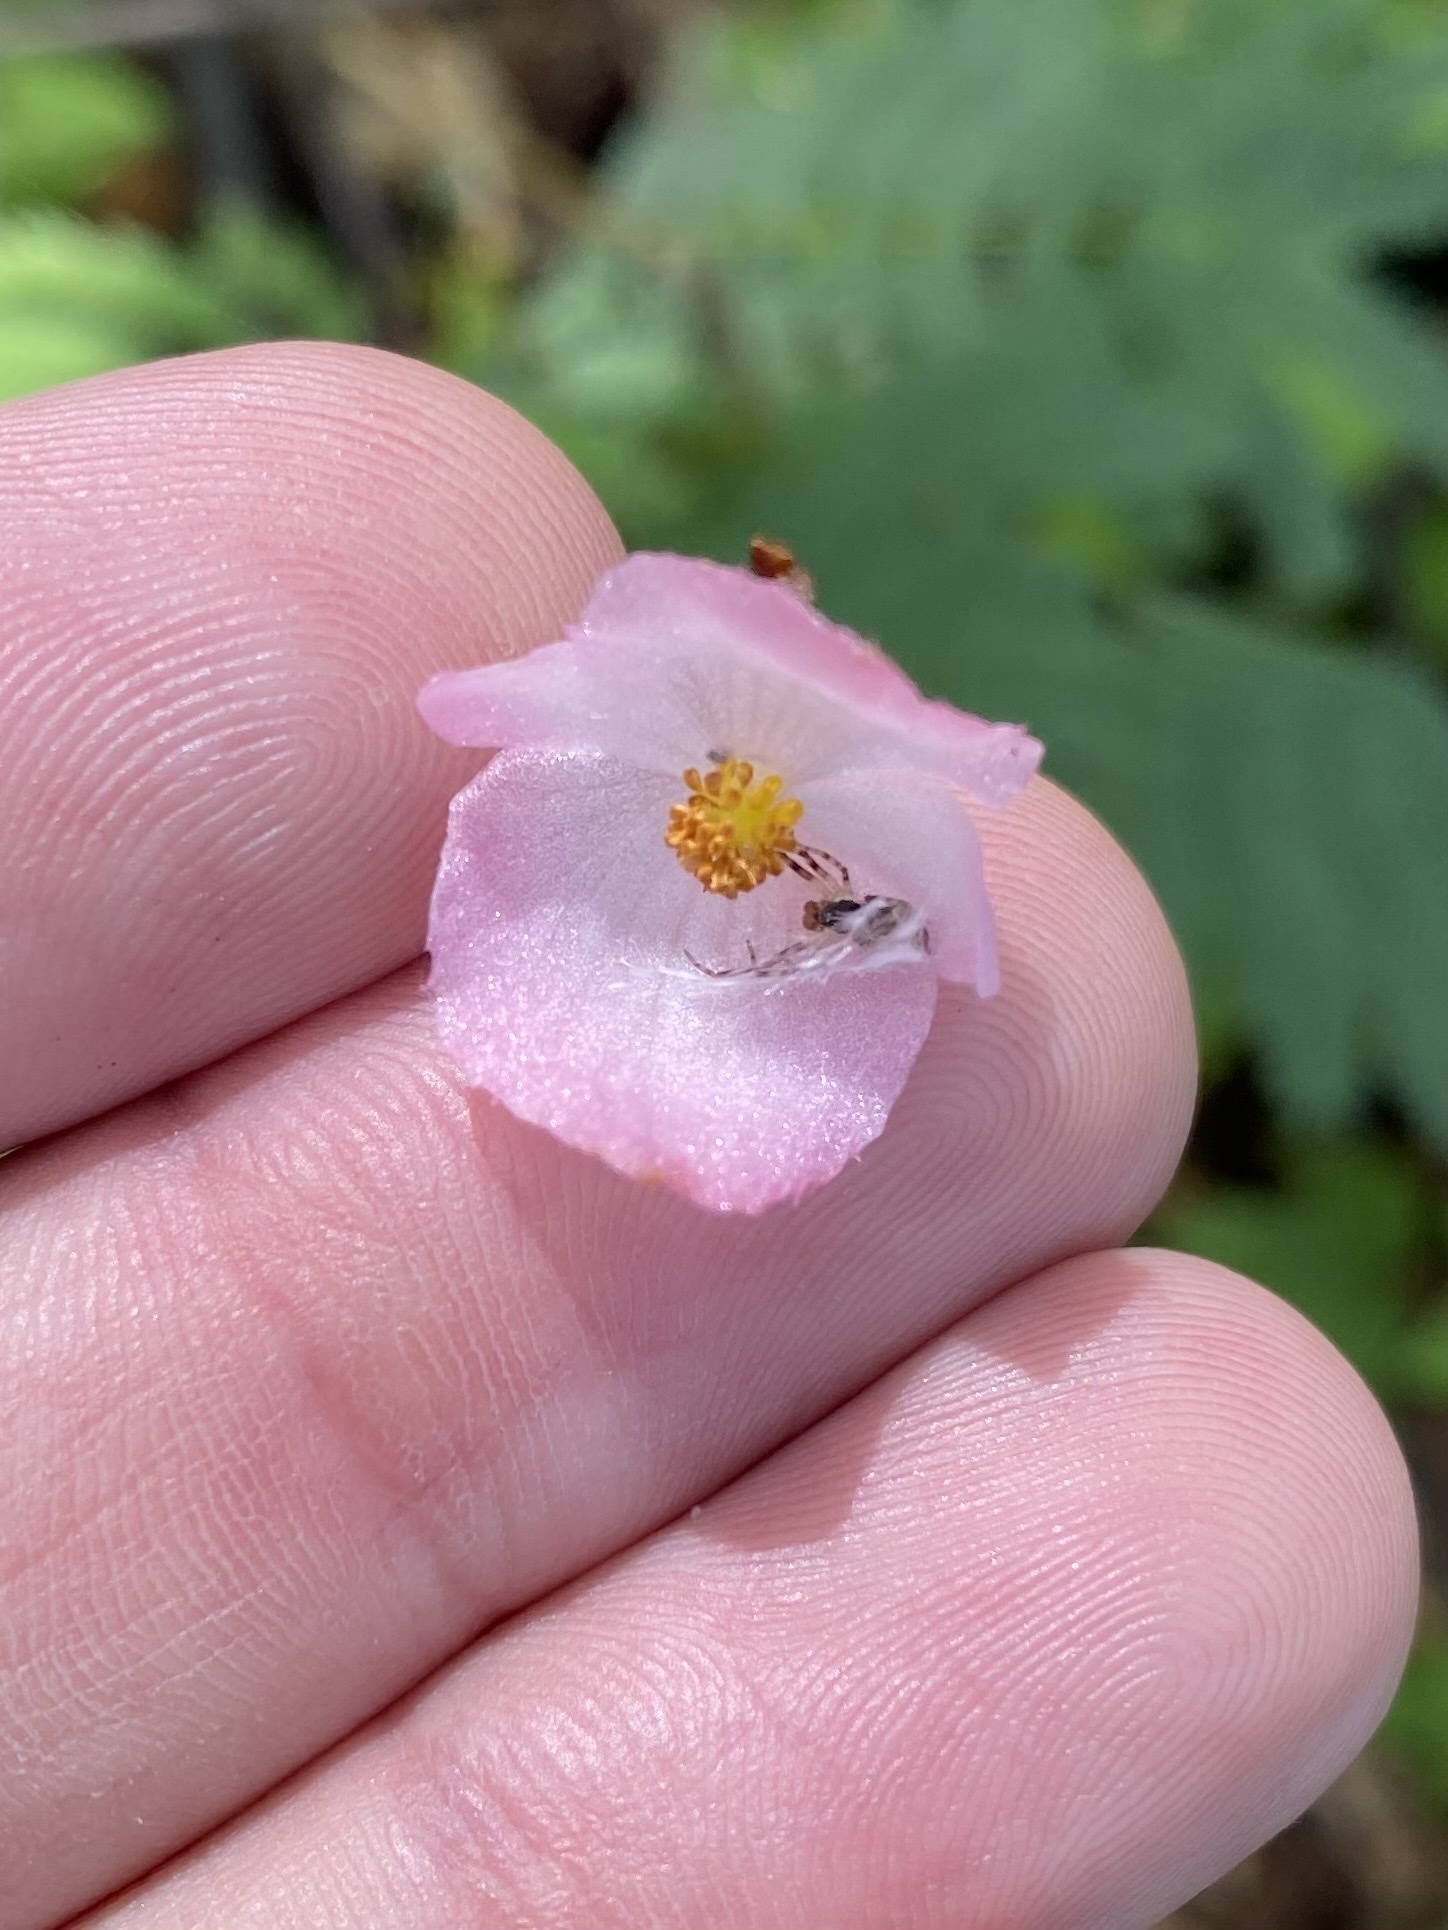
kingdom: Plantae
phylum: Tracheophyta
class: Magnoliopsida
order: Cucurbitales
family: Begoniaceae
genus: Begonia
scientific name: Begonia pedata
